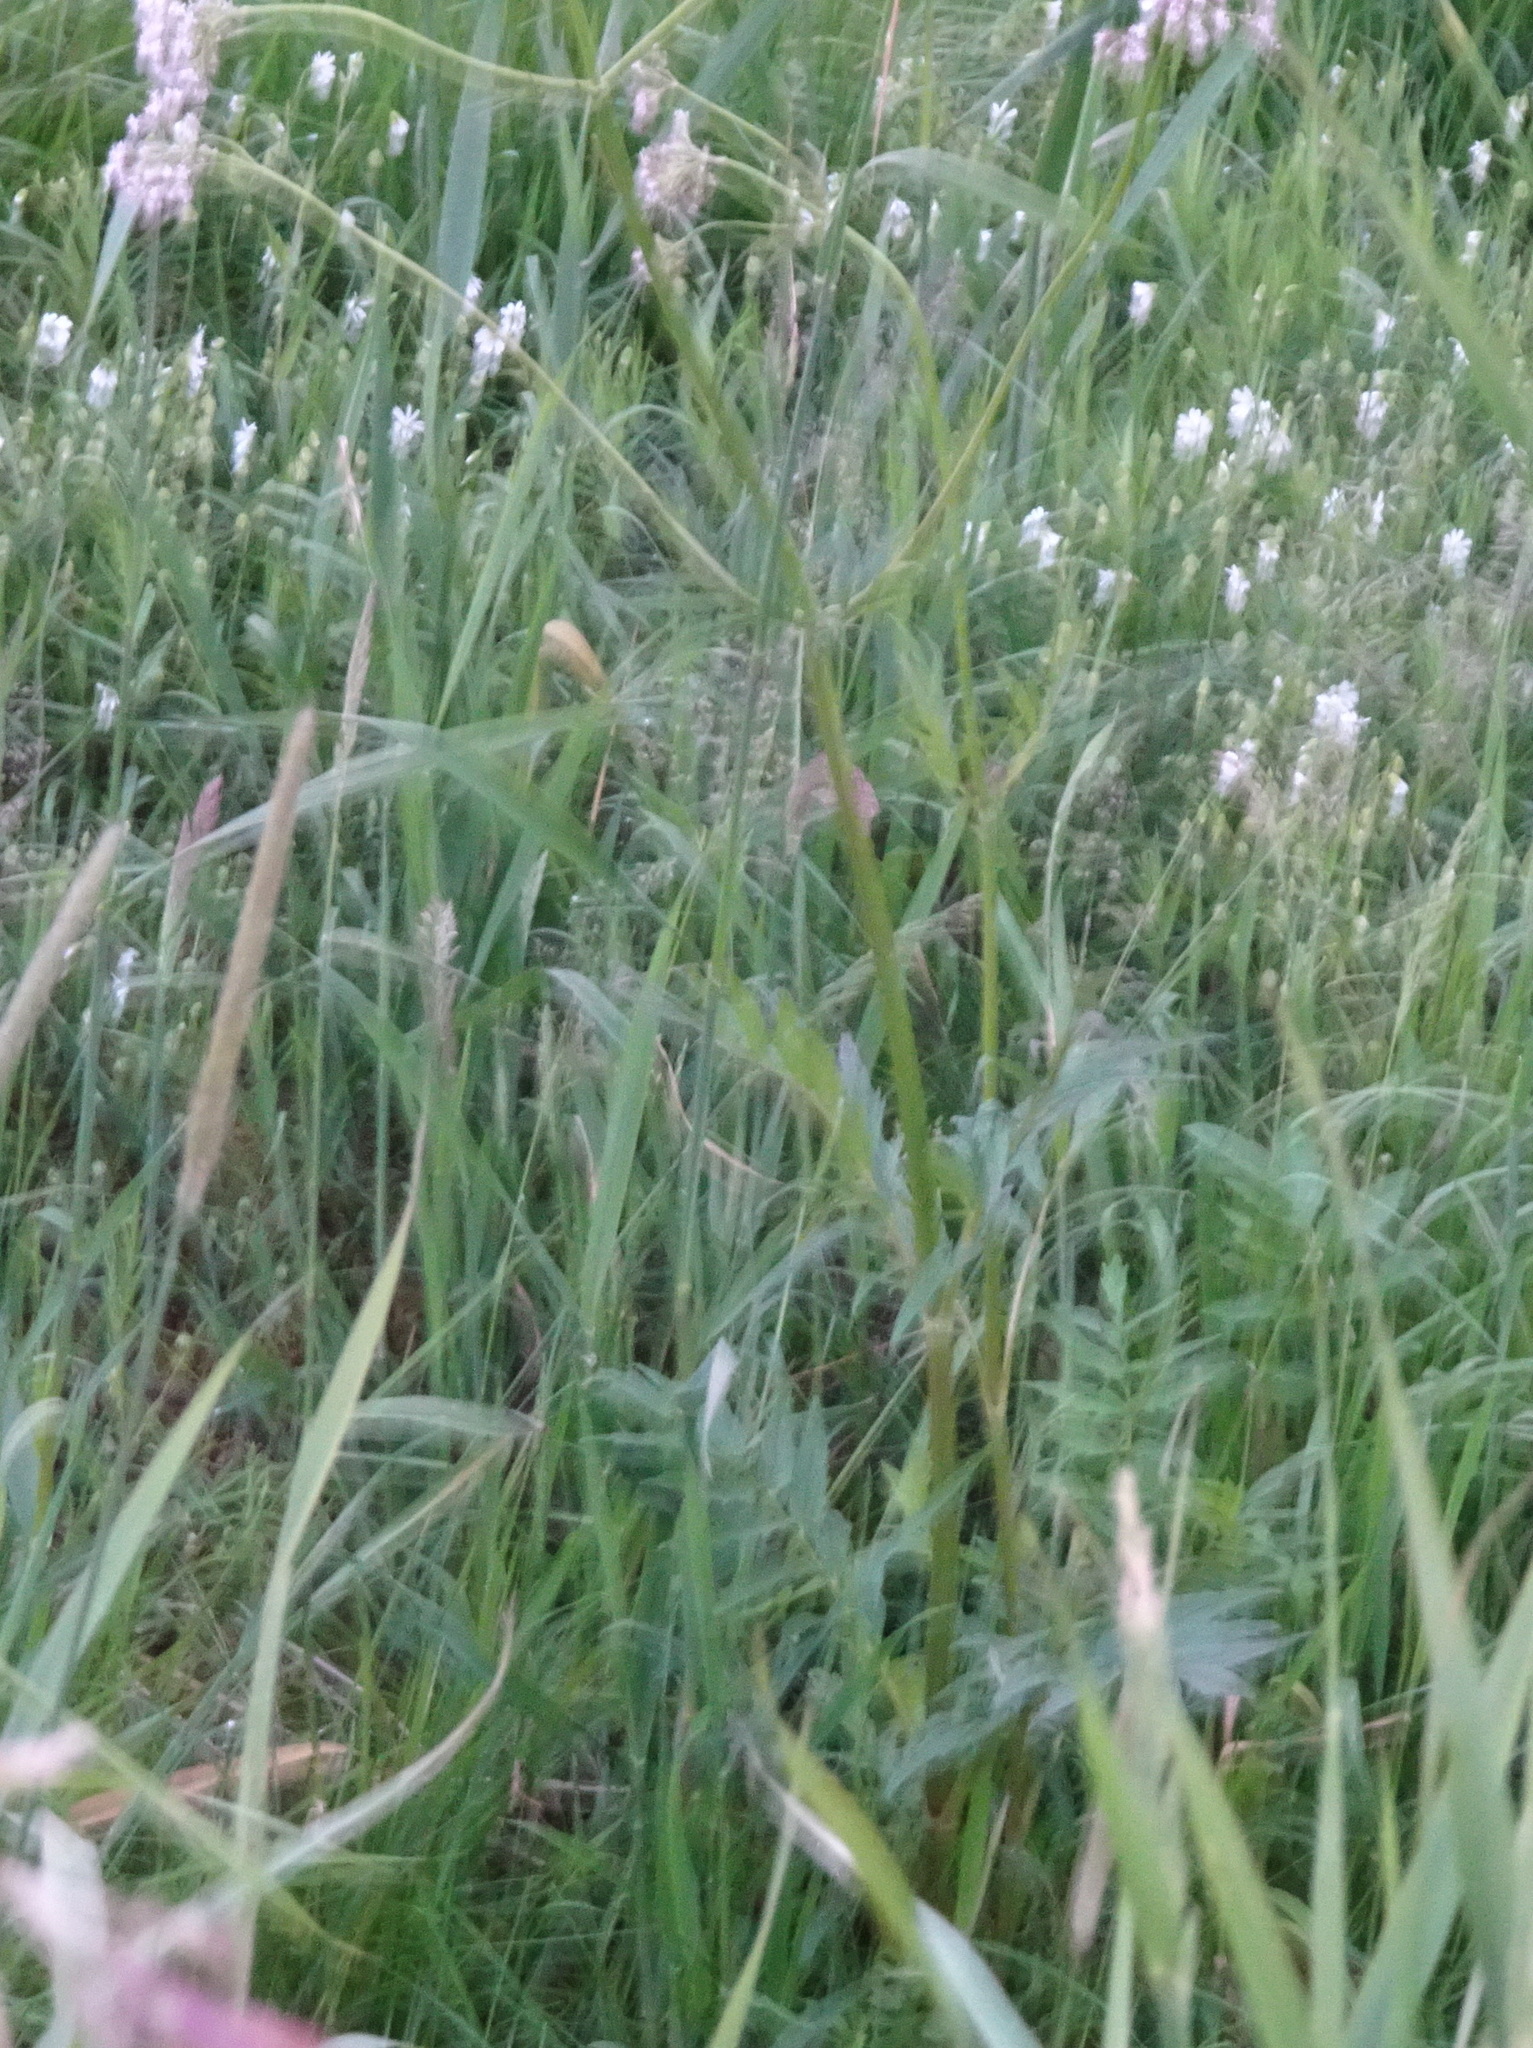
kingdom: Plantae
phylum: Tracheophyta
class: Magnoliopsida
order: Dipsacales
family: Caprifoliaceae
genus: Valeriana
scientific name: Valeriana officinalis
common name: Common valerian
